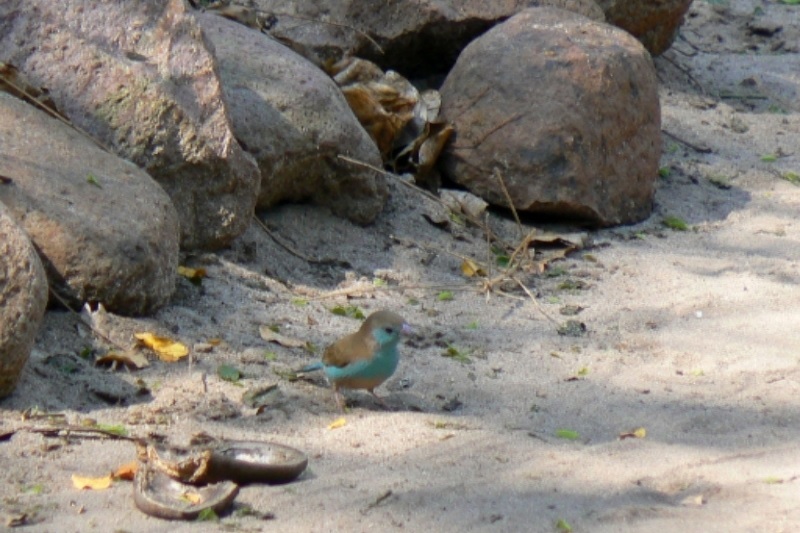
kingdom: Animalia
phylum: Chordata
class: Aves
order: Passeriformes
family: Estrildidae
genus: Uraeginthus
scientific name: Uraeginthus angolensis
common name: Blue waxbill
